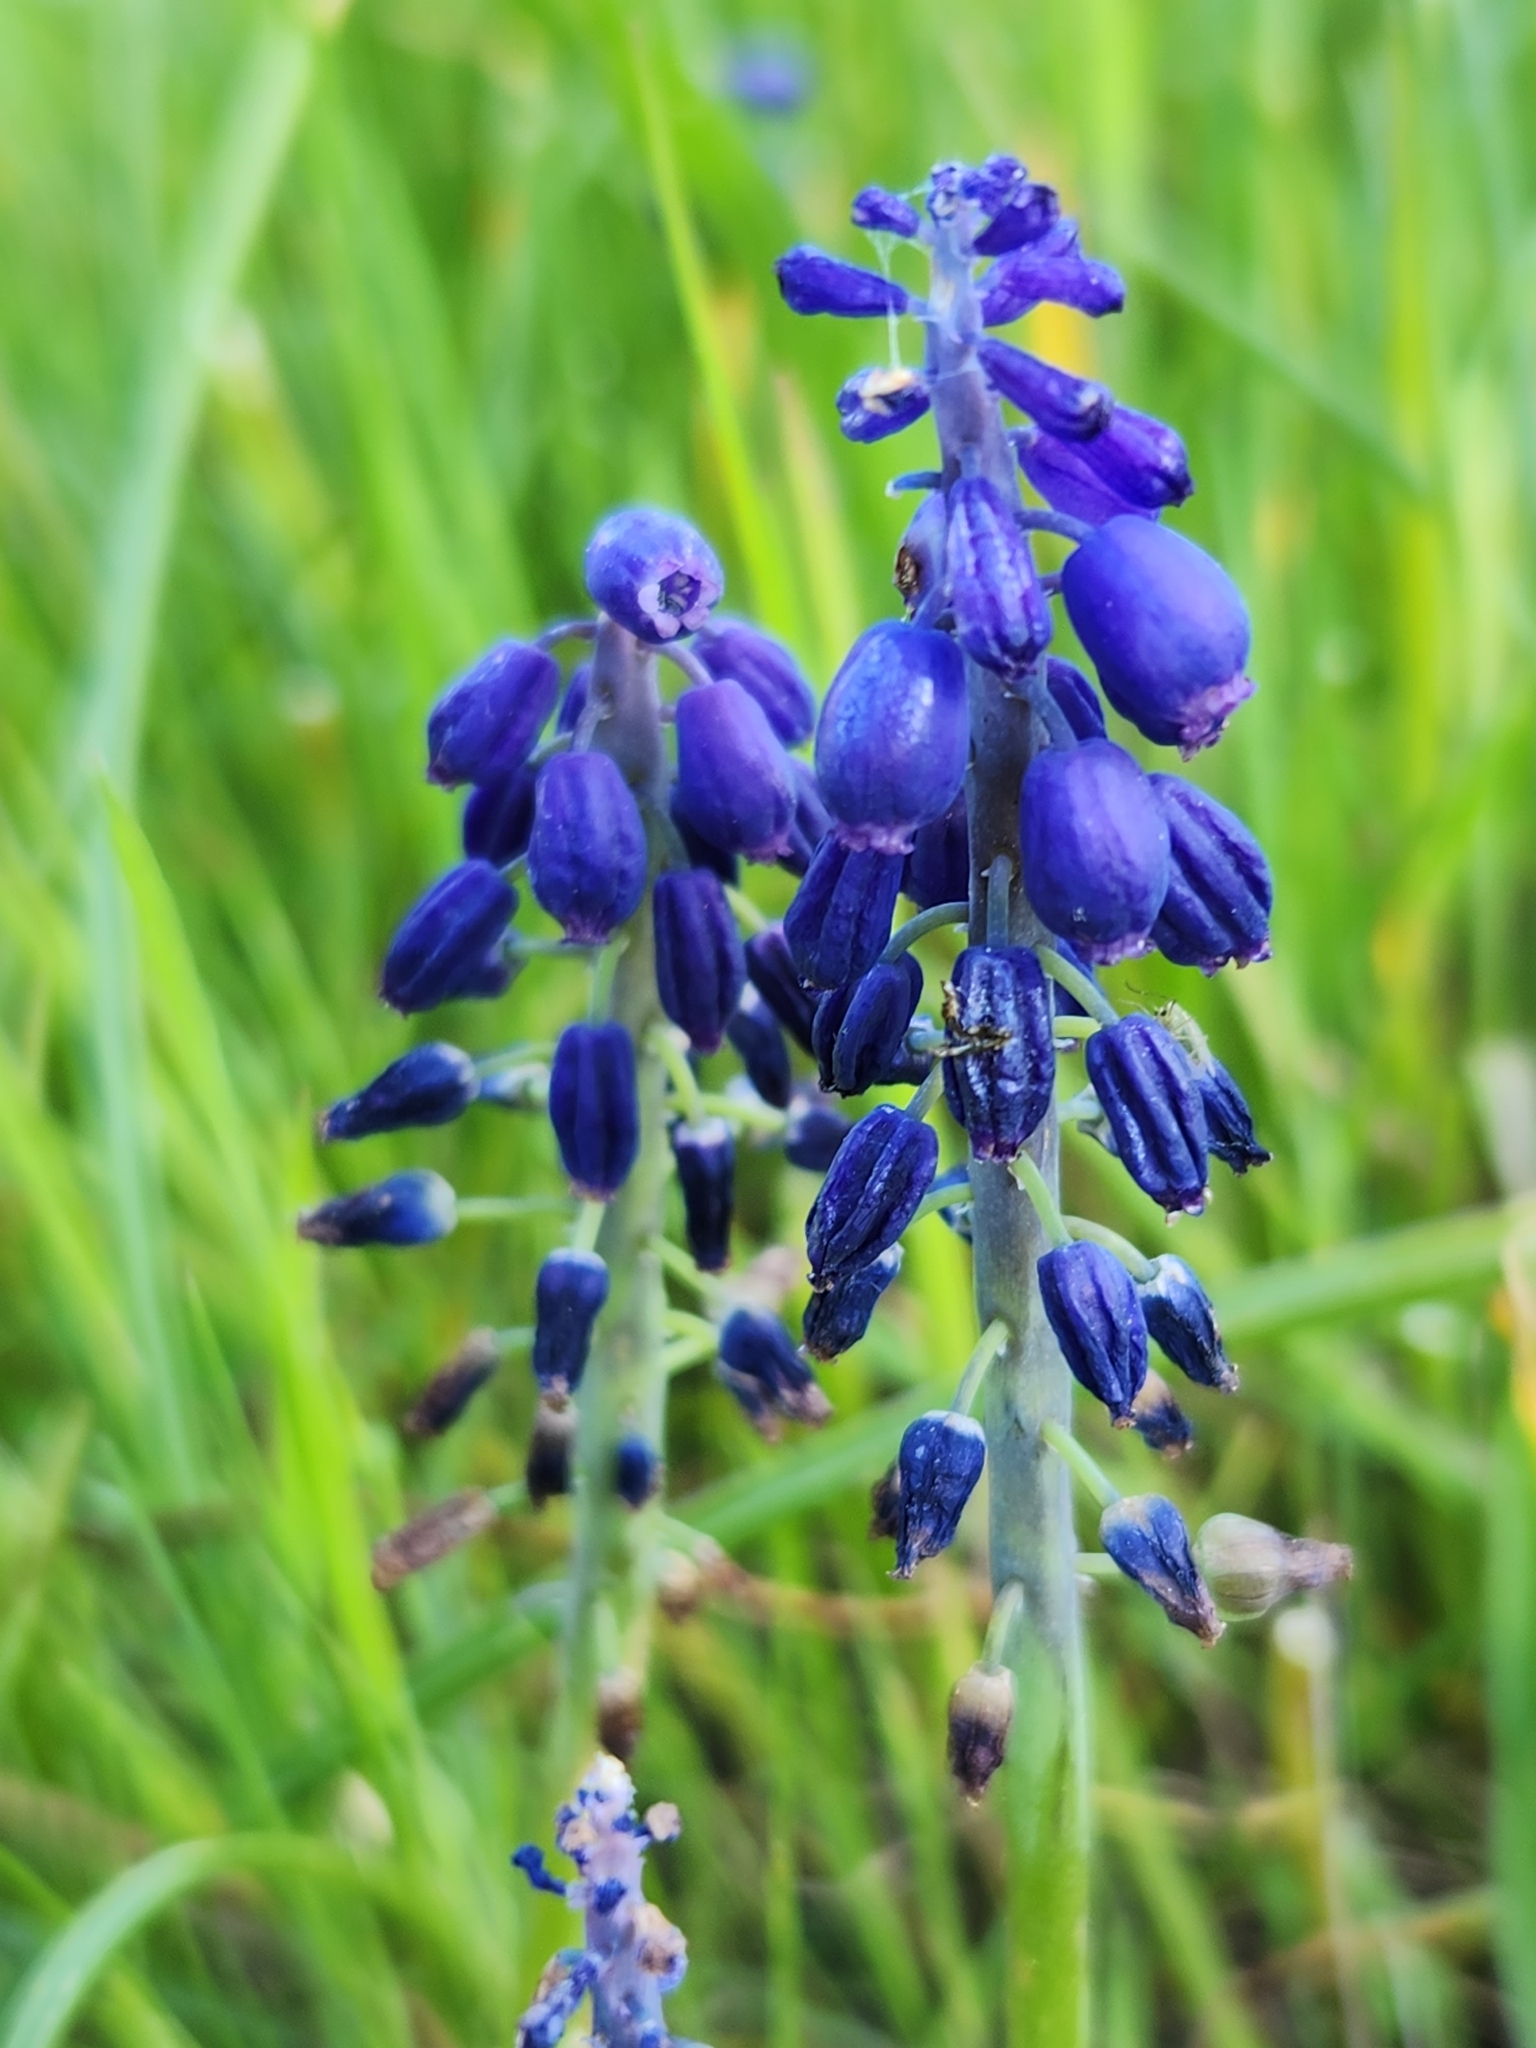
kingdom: Plantae
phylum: Tracheophyta
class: Liliopsida
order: Asparagales
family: Asparagaceae
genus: Muscari
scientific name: Muscari neglectum
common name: Grape-hyacinth
